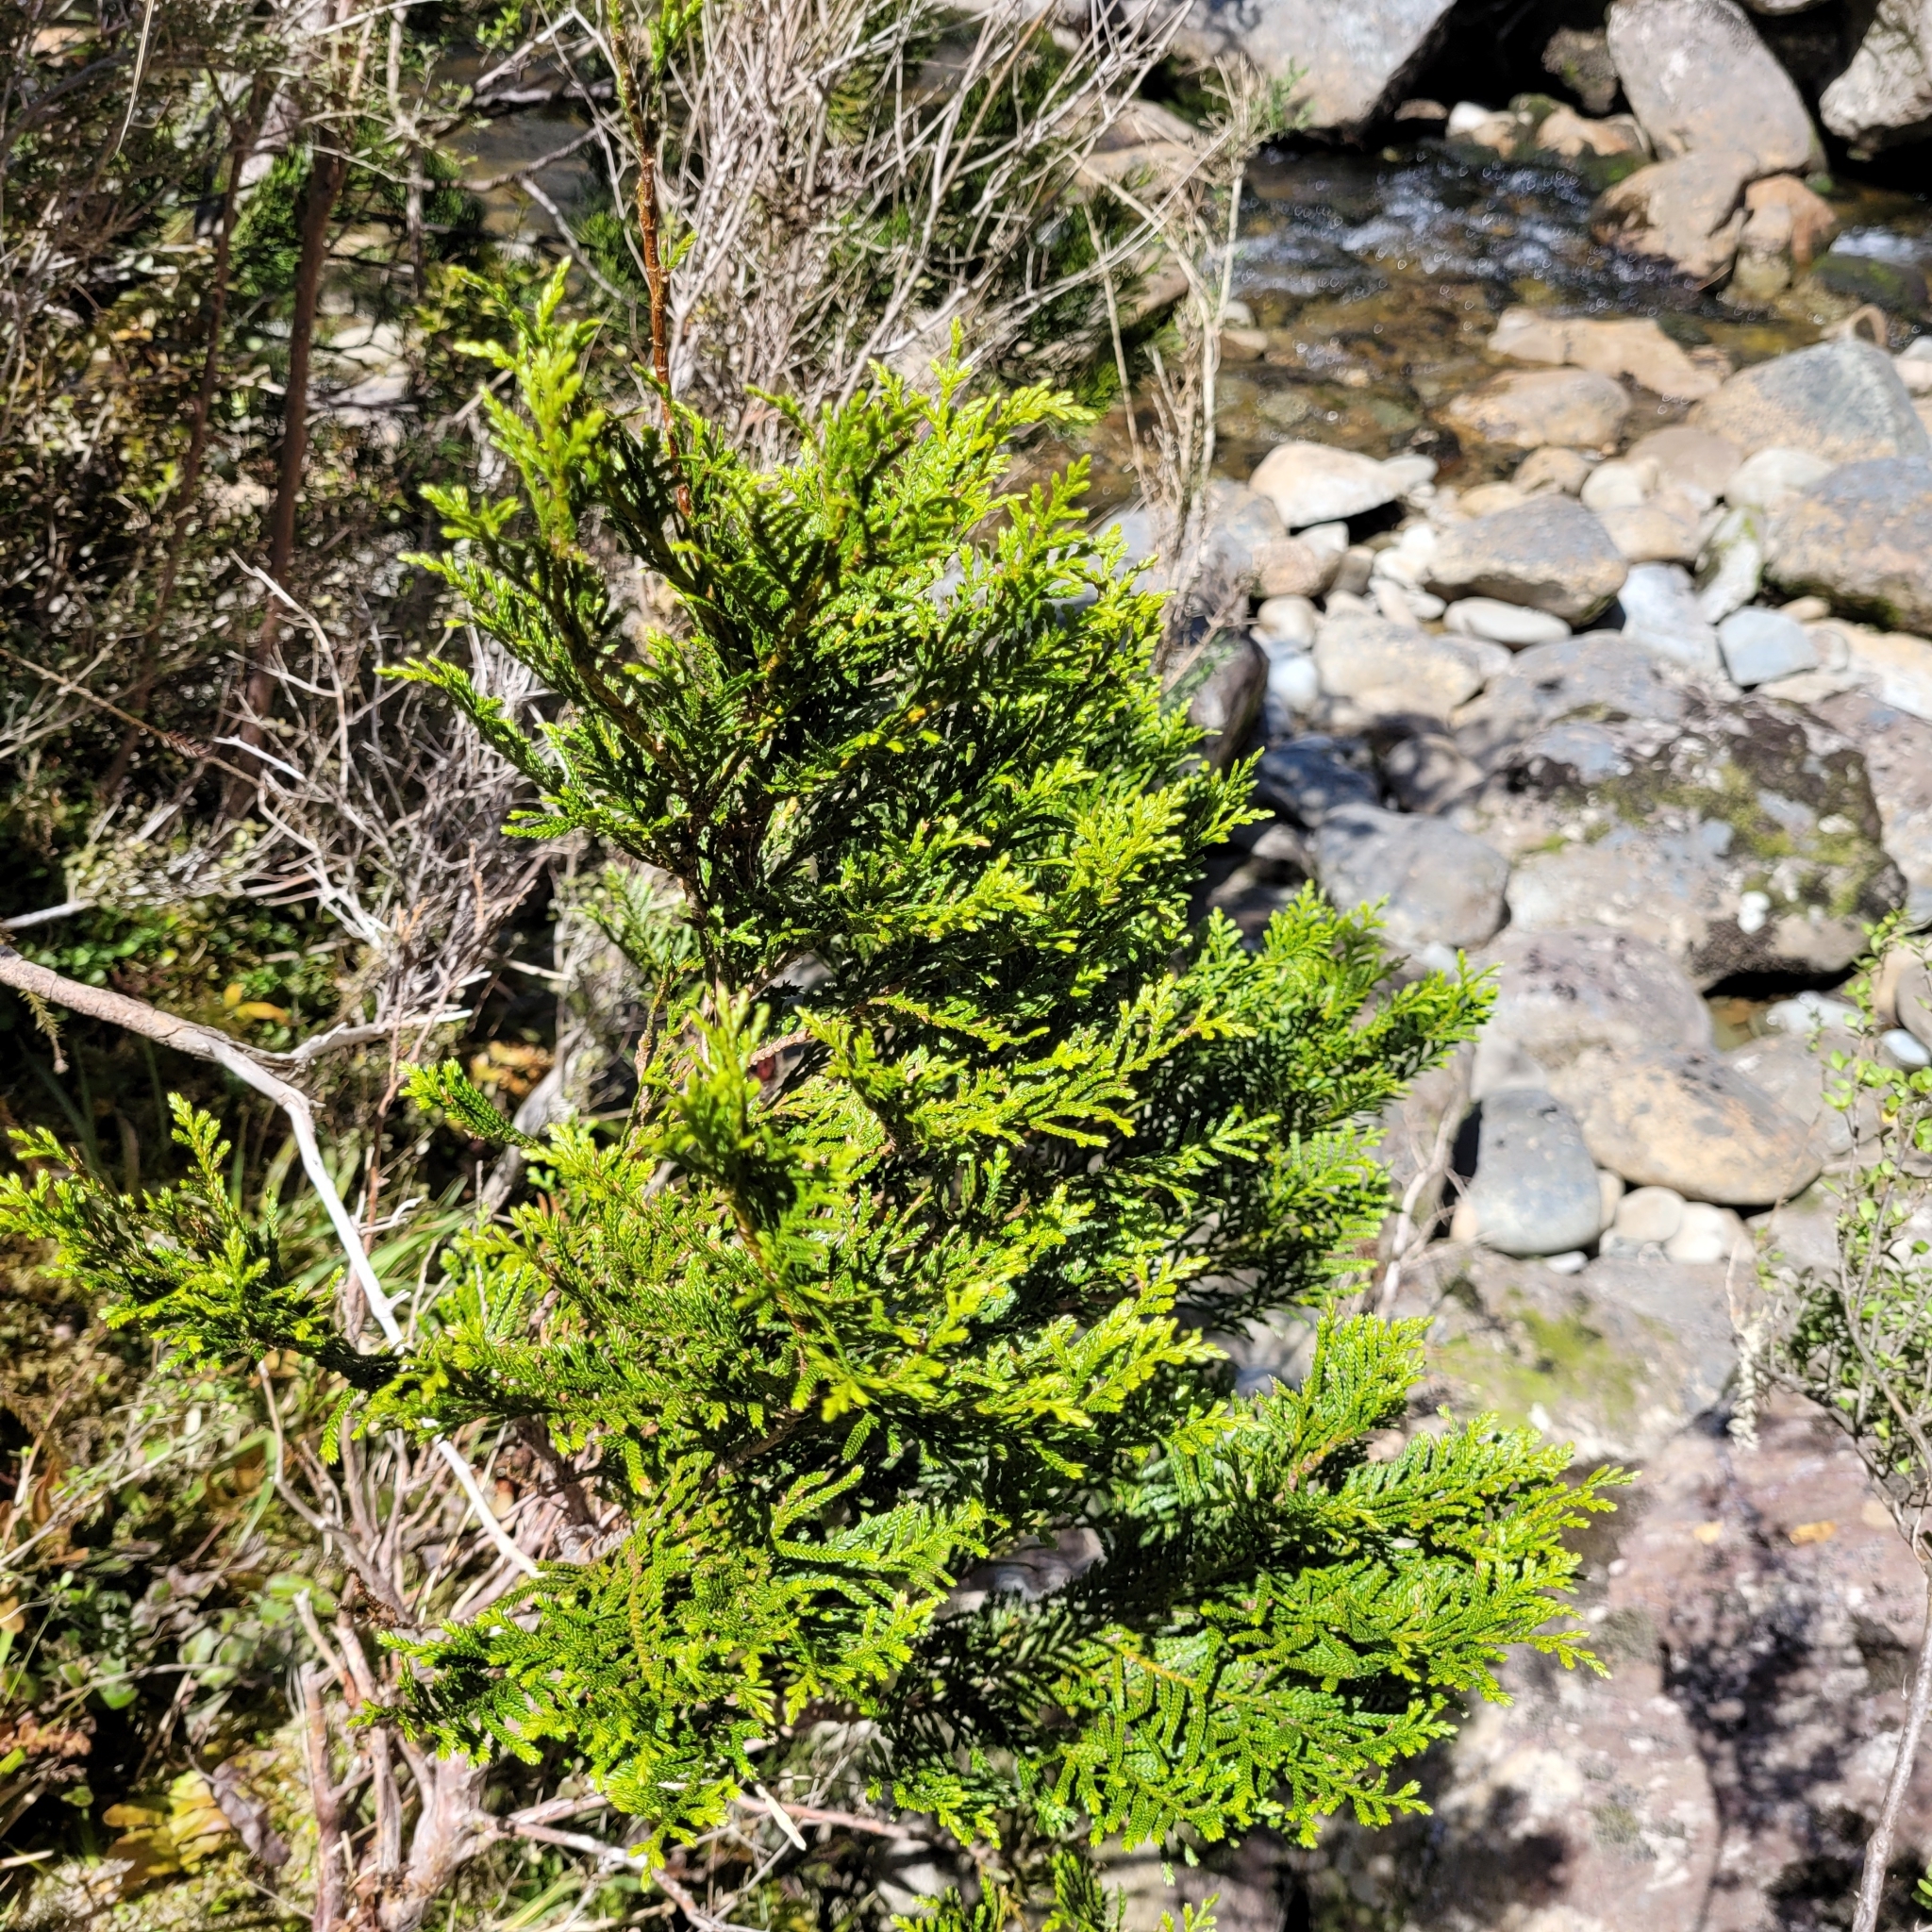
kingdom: Plantae
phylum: Tracheophyta
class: Pinopsida
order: Pinales
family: Cupressaceae
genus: Libocedrus
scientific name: Libocedrus bidwillii
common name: Cedar
